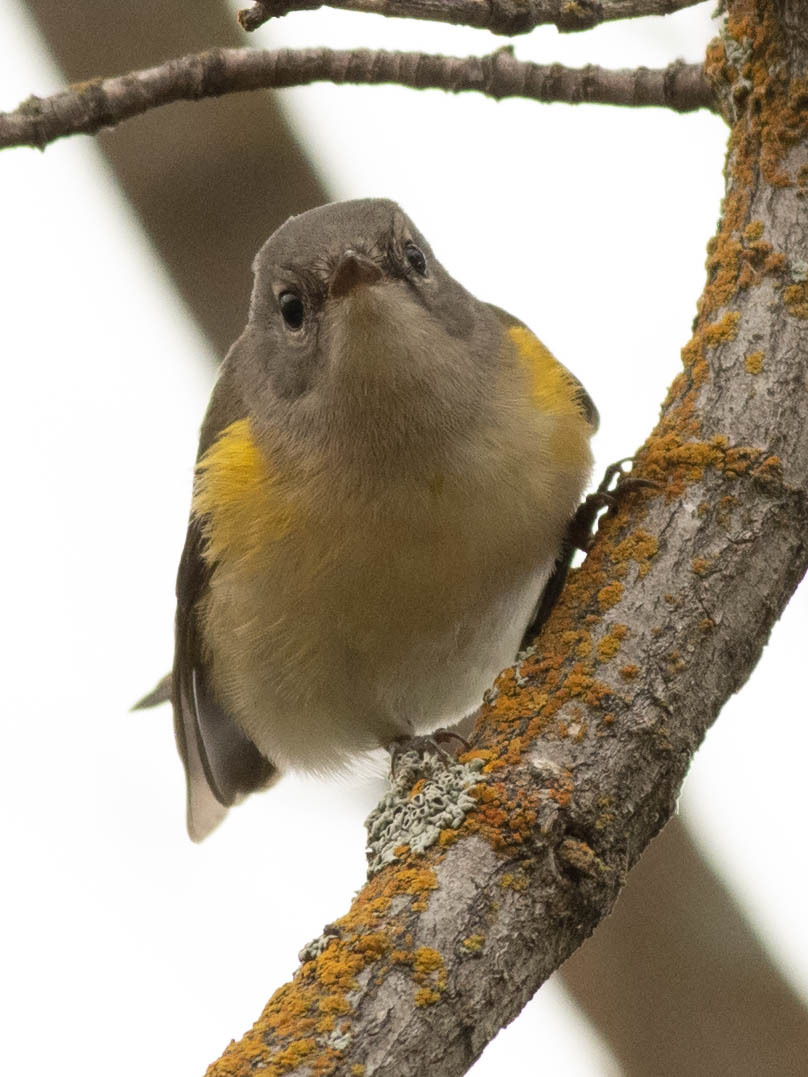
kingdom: Animalia
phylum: Chordata
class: Aves
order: Passeriformes
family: Parulidae
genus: Setophaga
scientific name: Setophaga ruticilla
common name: American redstart
